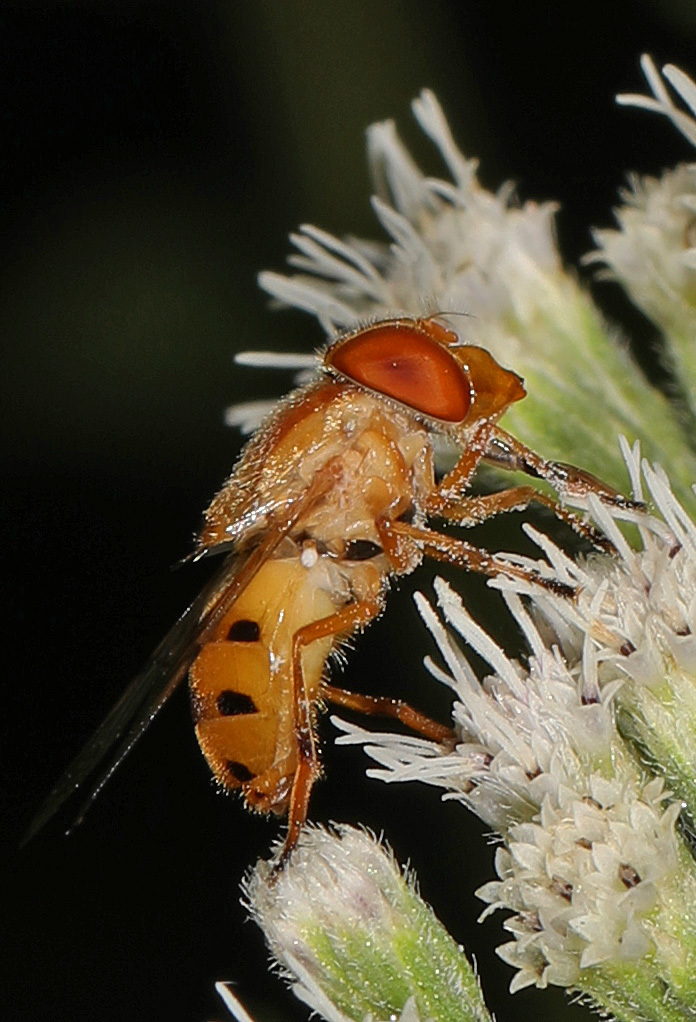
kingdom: Animalia
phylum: Arthropoda
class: Insecta
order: Diptera
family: Syrphidae
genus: Copestylum
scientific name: Copestylum sexmaculatum
